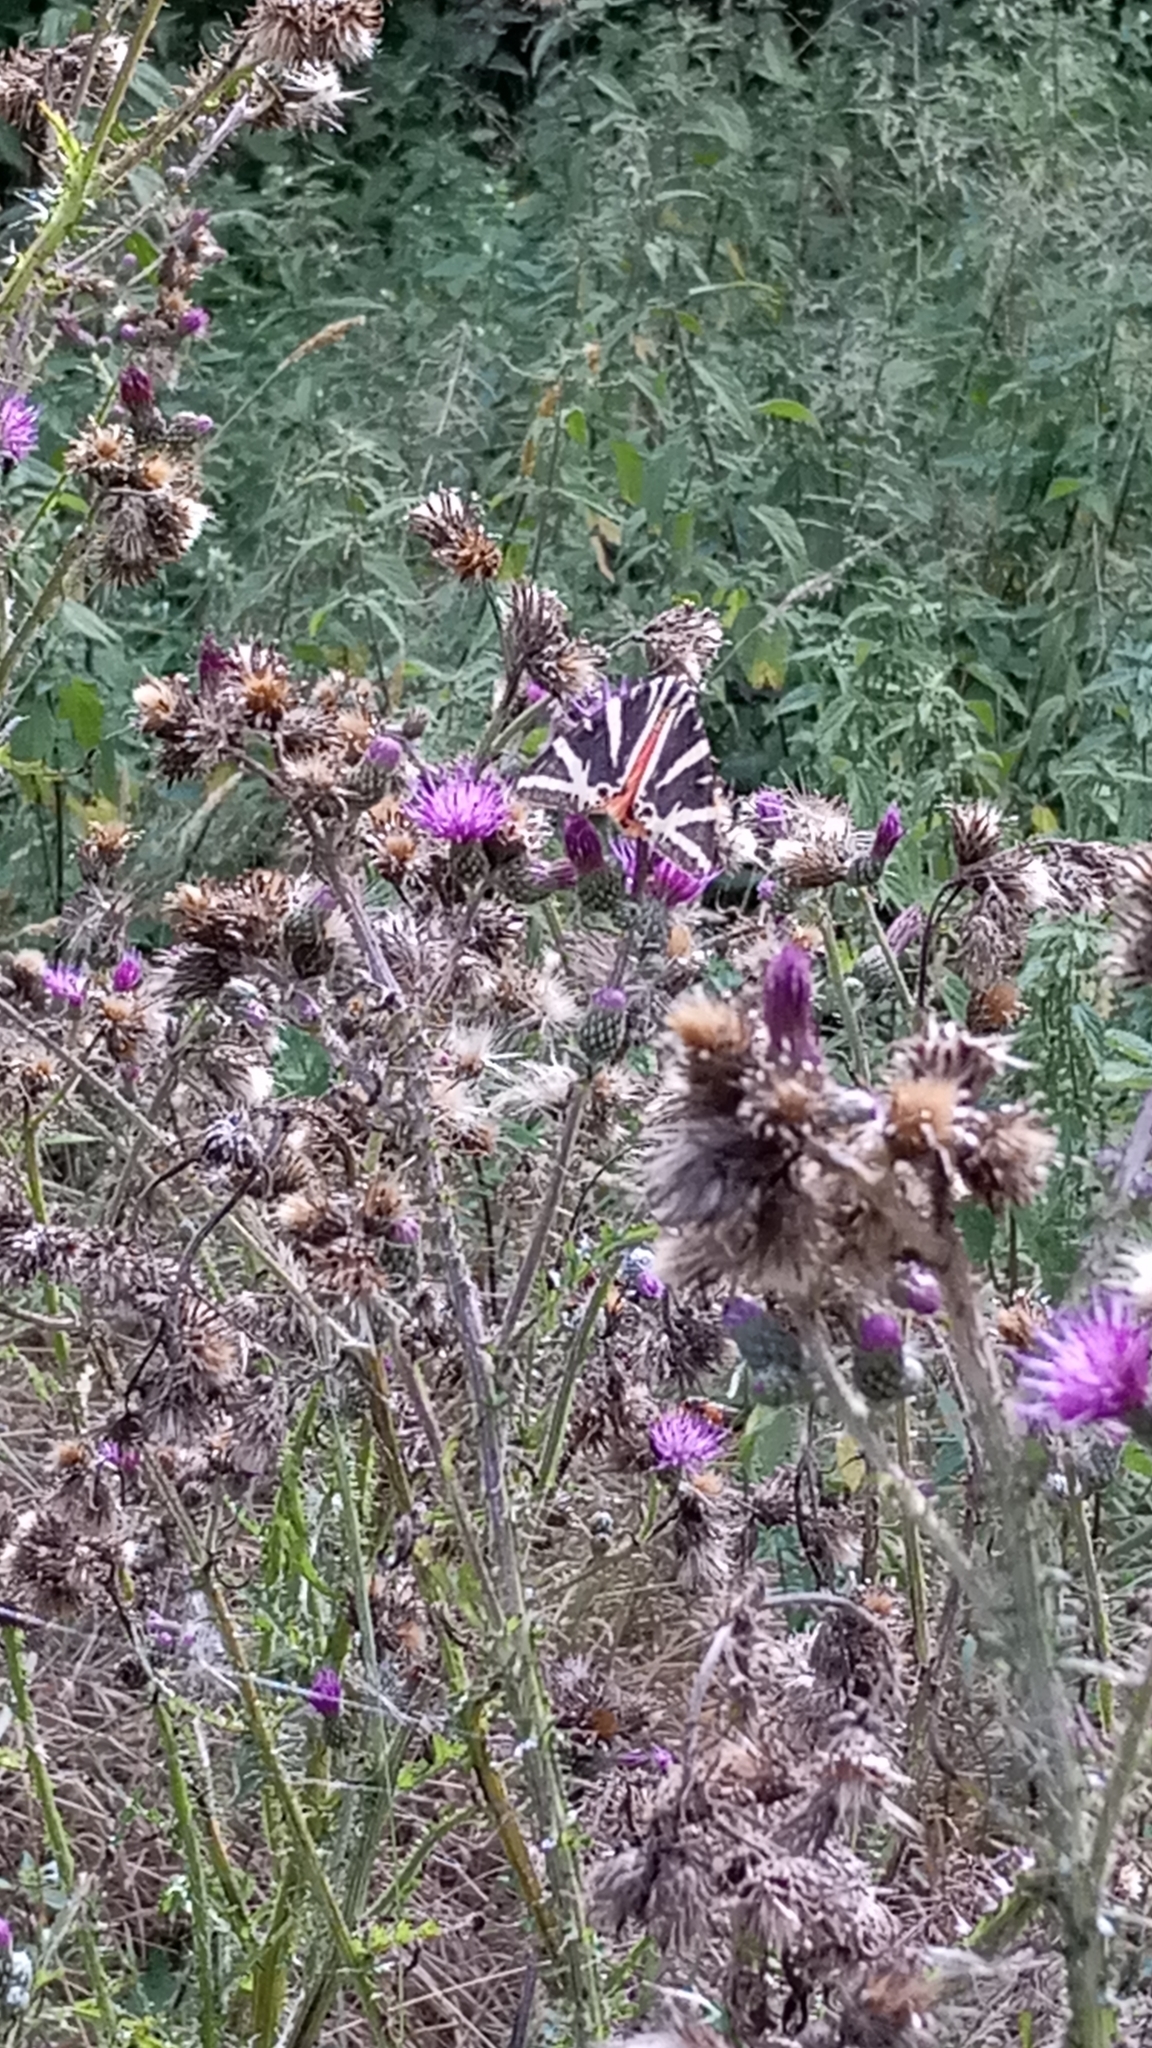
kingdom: Animalia
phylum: Arthropoda
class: Insecta
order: Lepidoptera
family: Erebidae
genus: Euplagia
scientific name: Euplagia quadripunctaria
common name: Jersey tiger
